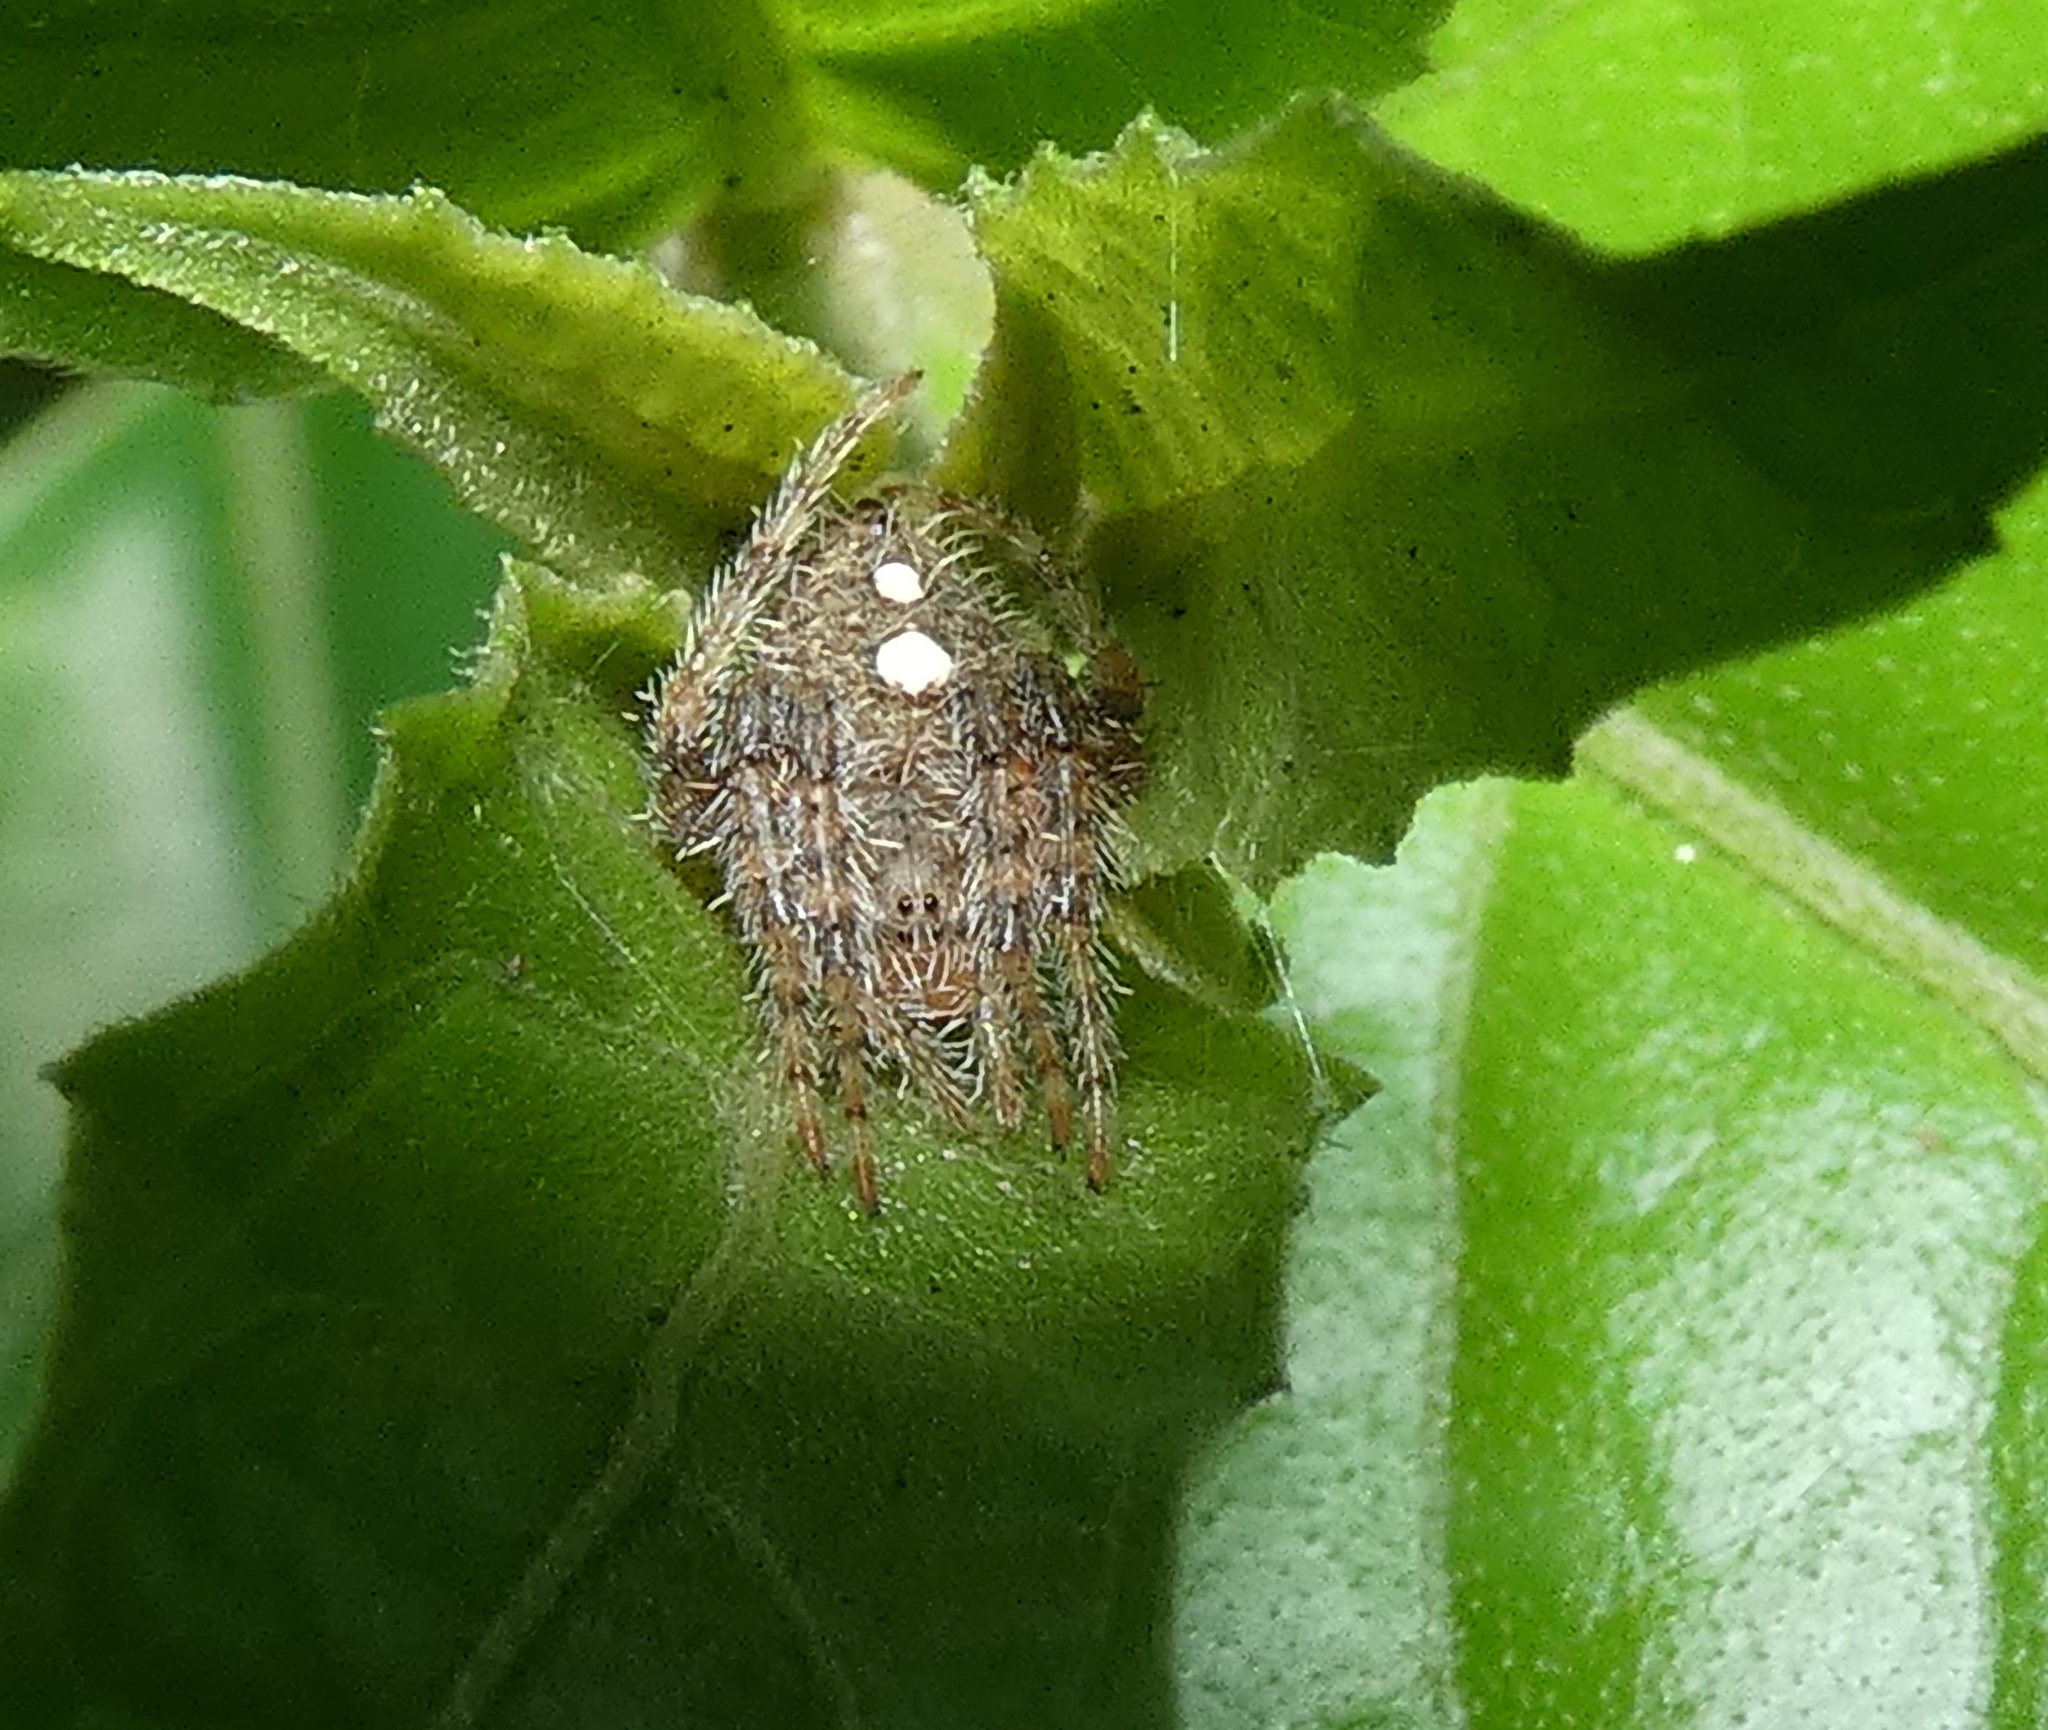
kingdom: Animalia
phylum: Arthropoda
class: Arachnida
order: Araneae
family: Araneidae
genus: Eriophora
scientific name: Eriophora edax
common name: Orb weavers
